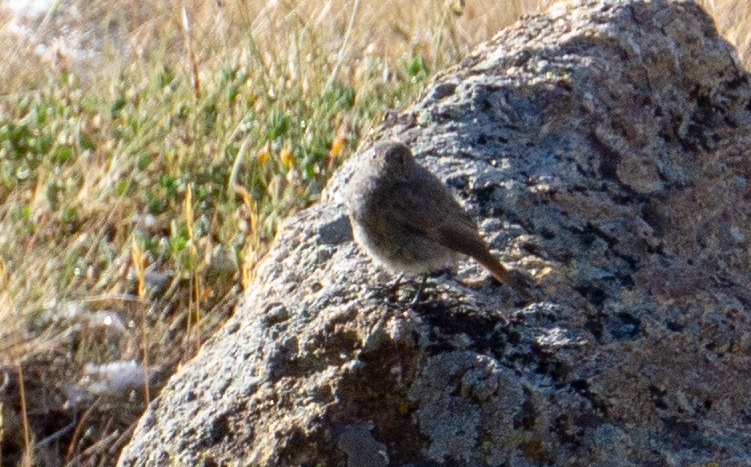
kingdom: Animalia
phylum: Chordata
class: Aves
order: Passeriformes
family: Muscicapidae
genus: Phoenicurus
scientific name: Phoenicurus ochruros
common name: Black redstart
